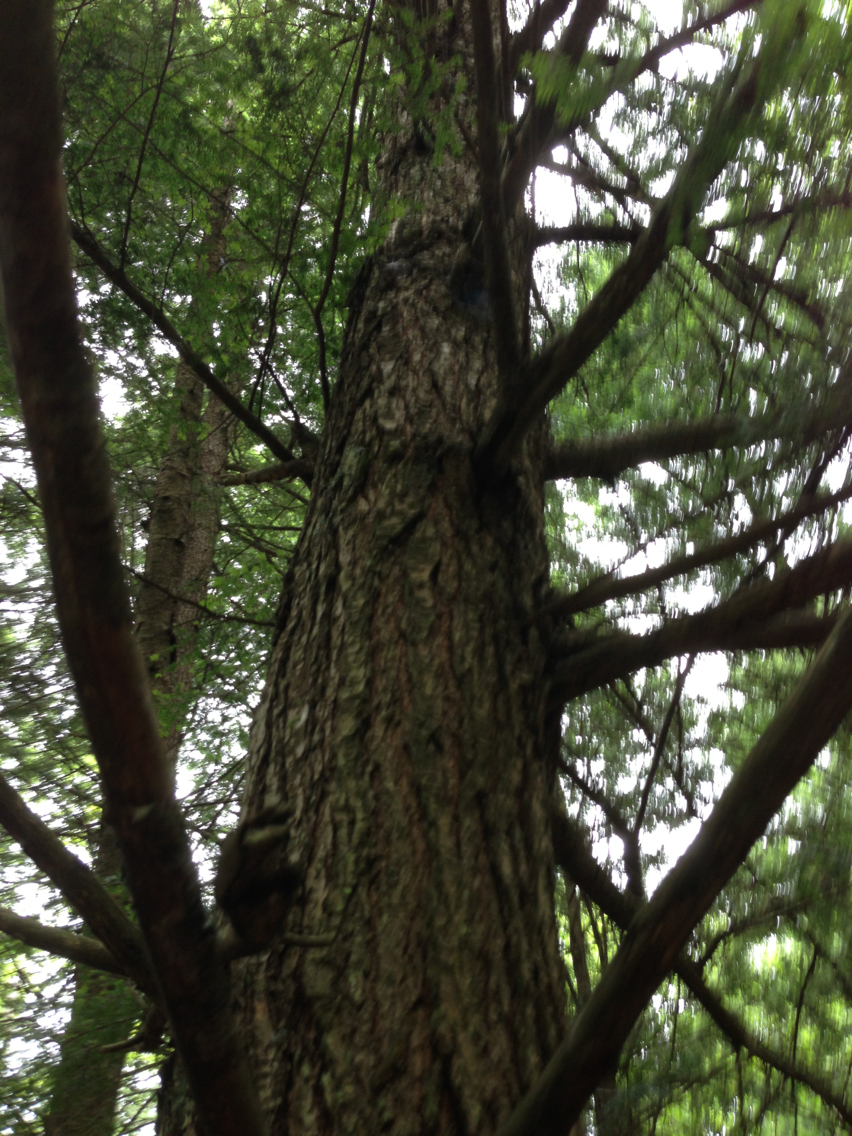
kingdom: Plantae
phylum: Tracheophyta
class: Pinopsida
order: Pinales
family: Pinaceae
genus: Tsuga
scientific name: Tsuga canadensis
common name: Eastern hemlock
